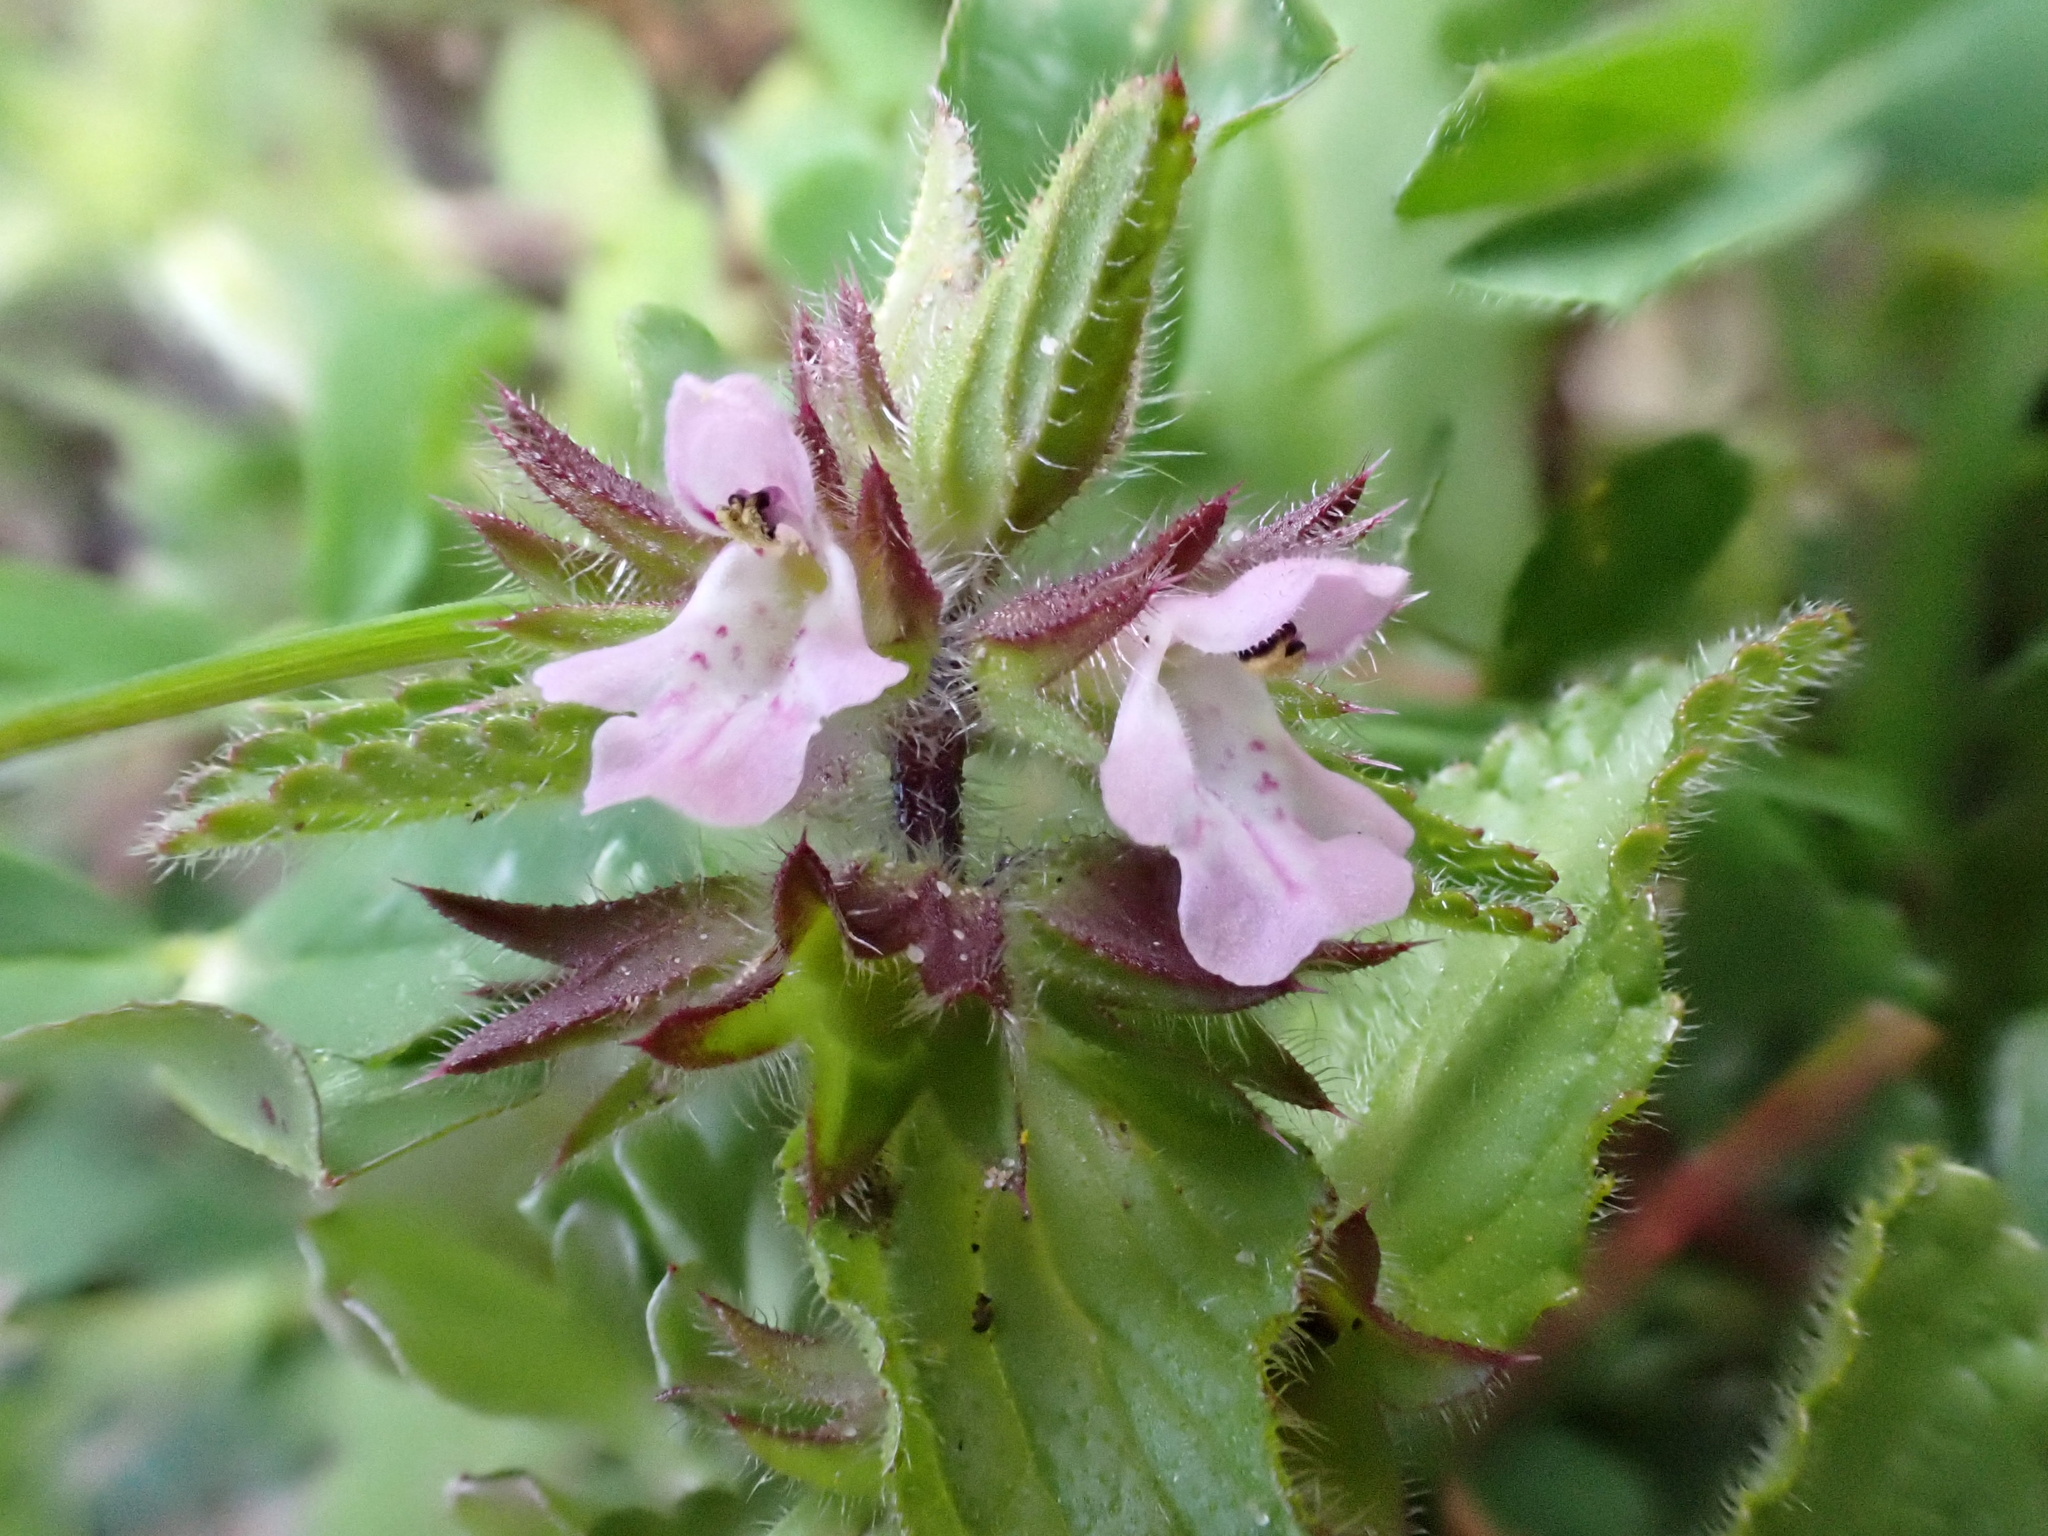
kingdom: Plantae
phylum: Tracheophyta
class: Magnoliopsida
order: Lamiales
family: Lamiaceae
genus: Stachys
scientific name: Stachys arvensis
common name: Field woundwort
